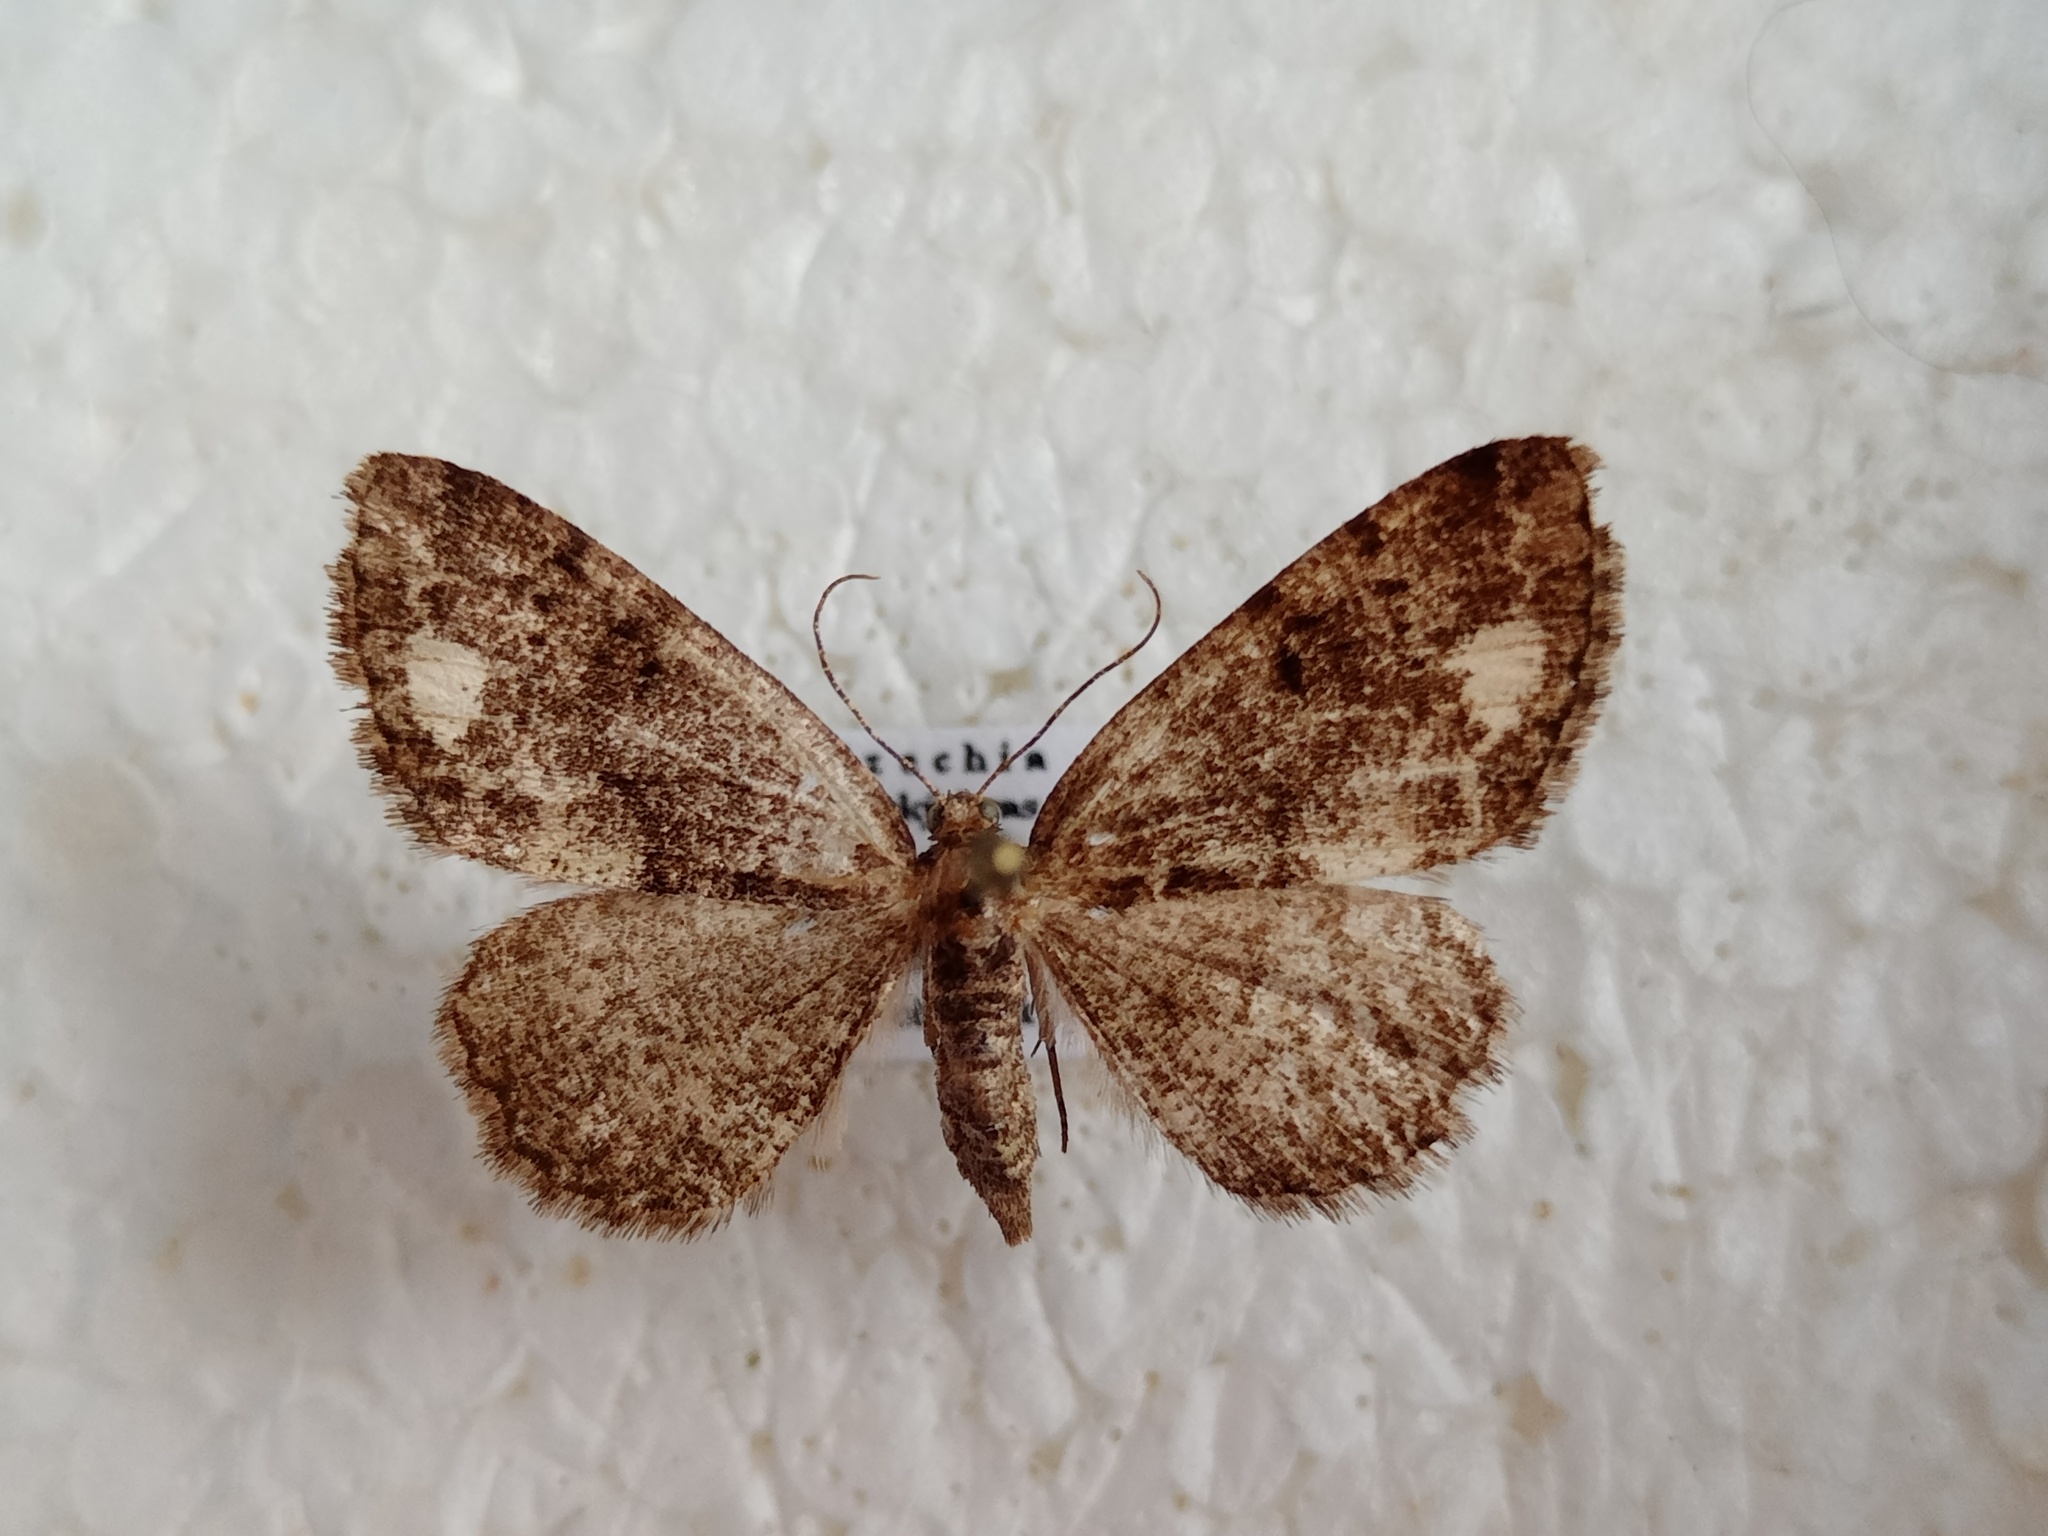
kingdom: Animalia
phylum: Arthropoda
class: Insecta
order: Lepidoptera
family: Geometridae
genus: Parectropis
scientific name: Parectropis similaria
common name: Brindled white-spot
